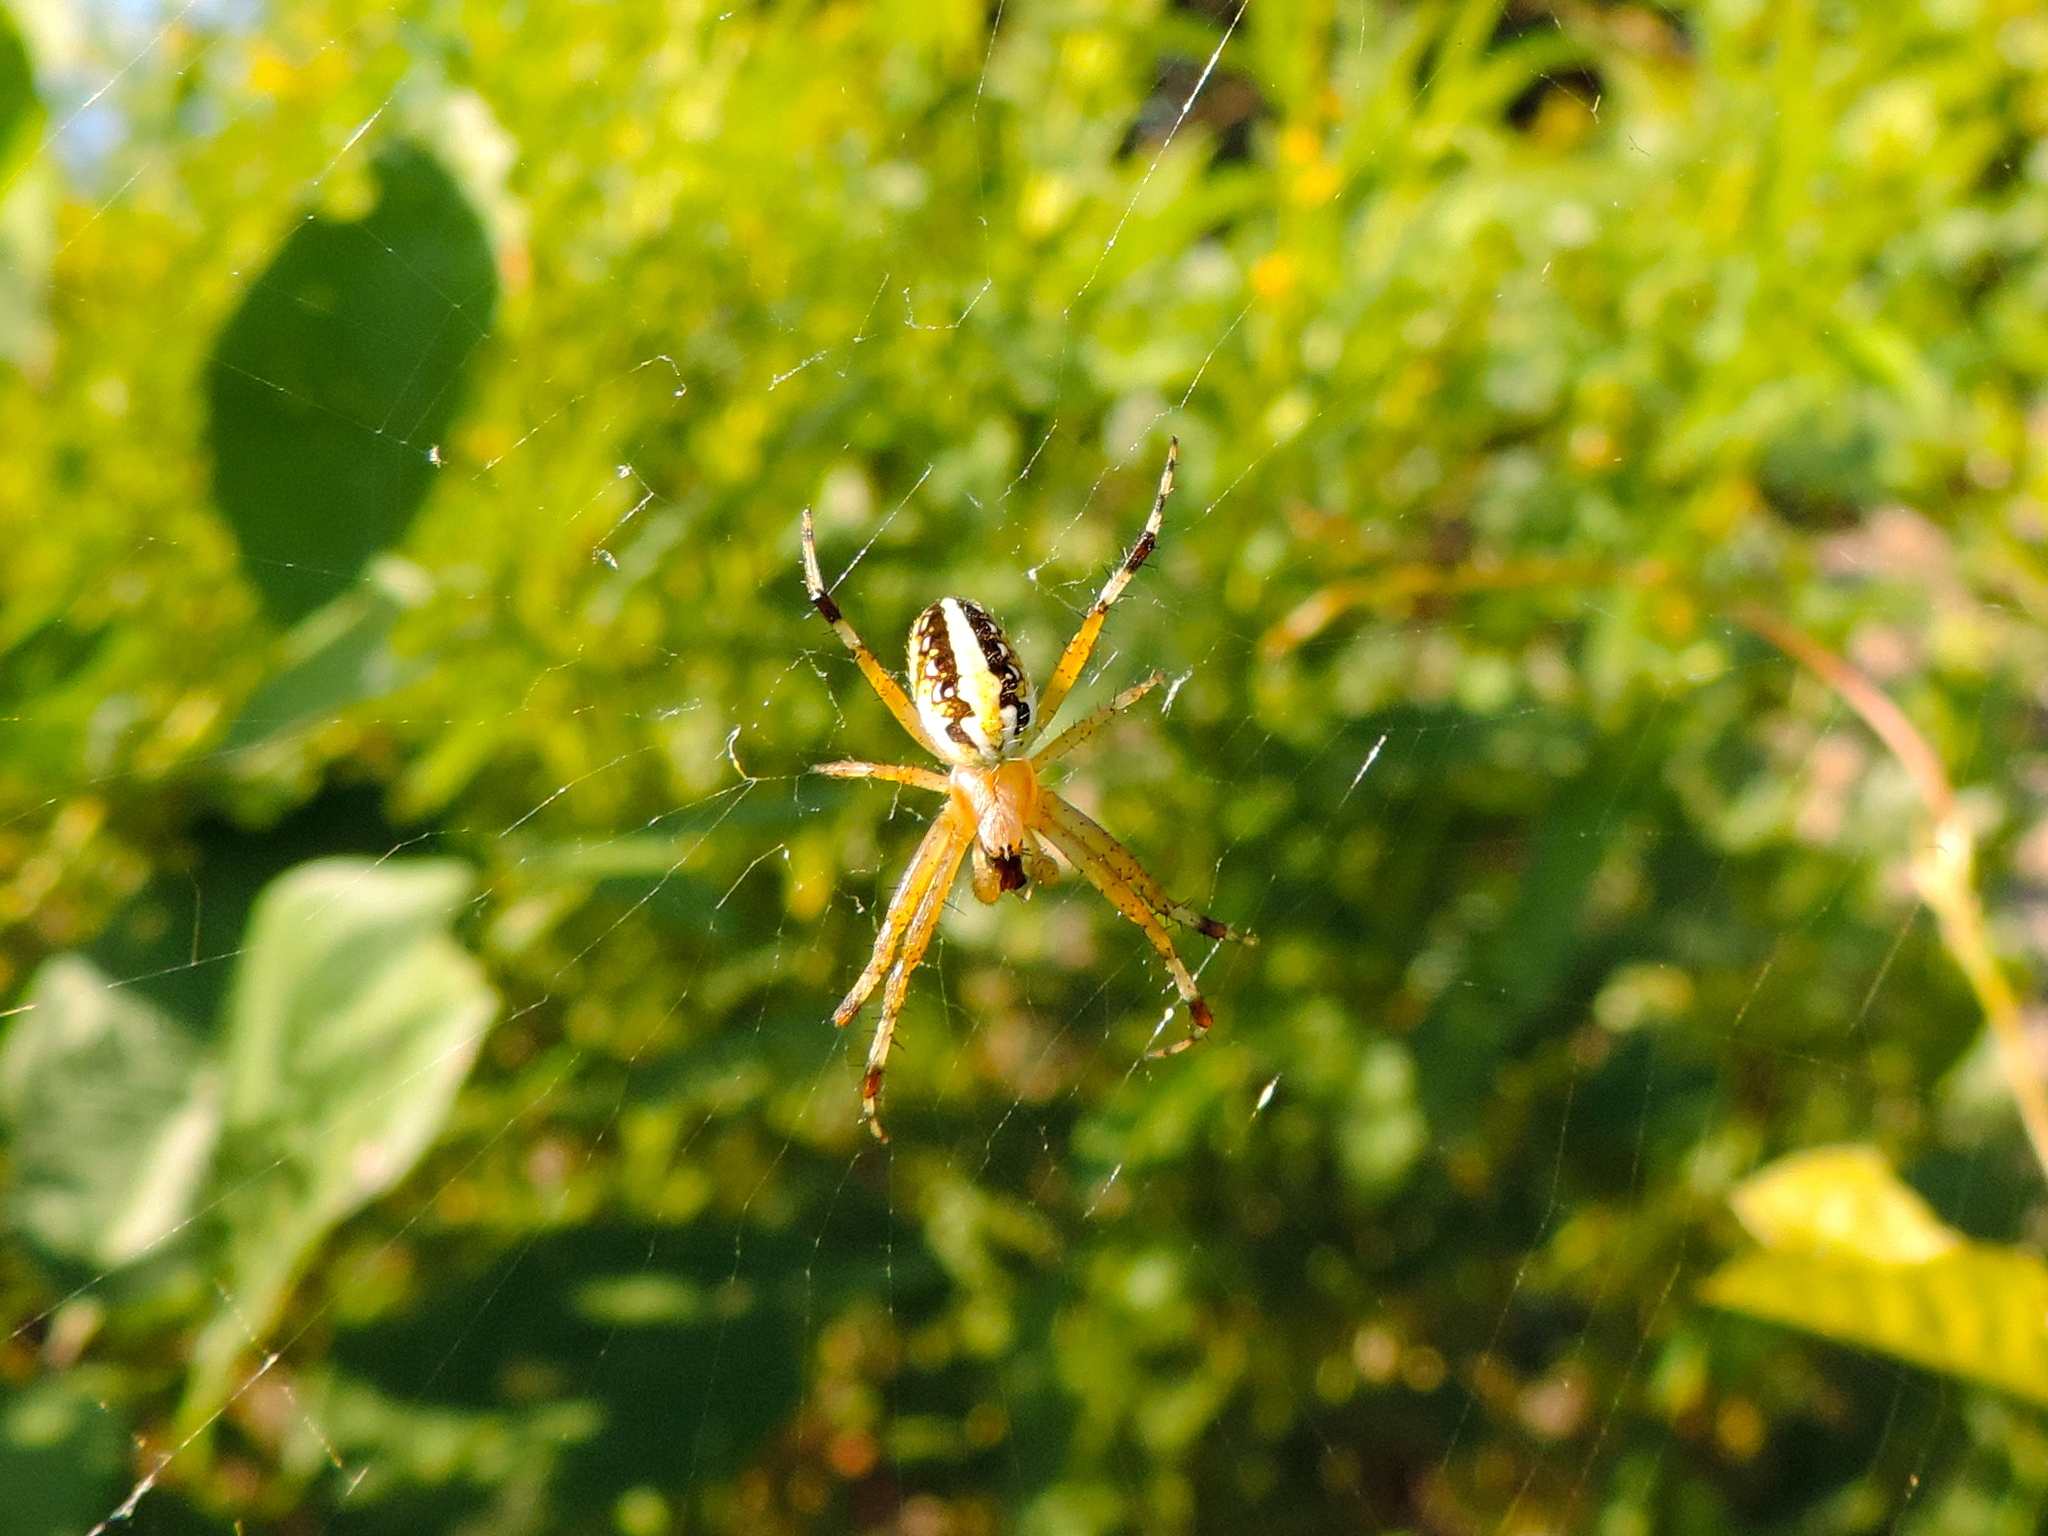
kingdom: Animalia
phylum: Arthropoda
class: Arachnida
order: Araneae
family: Araneidae
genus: Neoscona
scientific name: Neoscona oaxacensis
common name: Orb weavers
